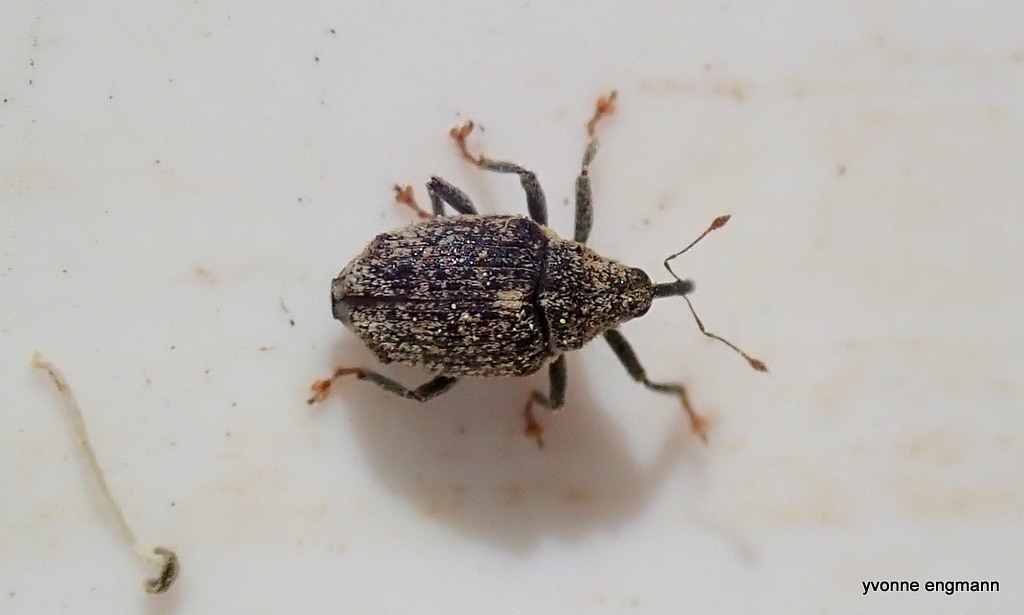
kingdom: Animalia
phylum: Arthropoda
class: Insecta
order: Coleoptera
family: Curculionidae
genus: Ceutorhynchus
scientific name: Ceutorhynchus pallidactylus
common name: Cabbage stem weavil
